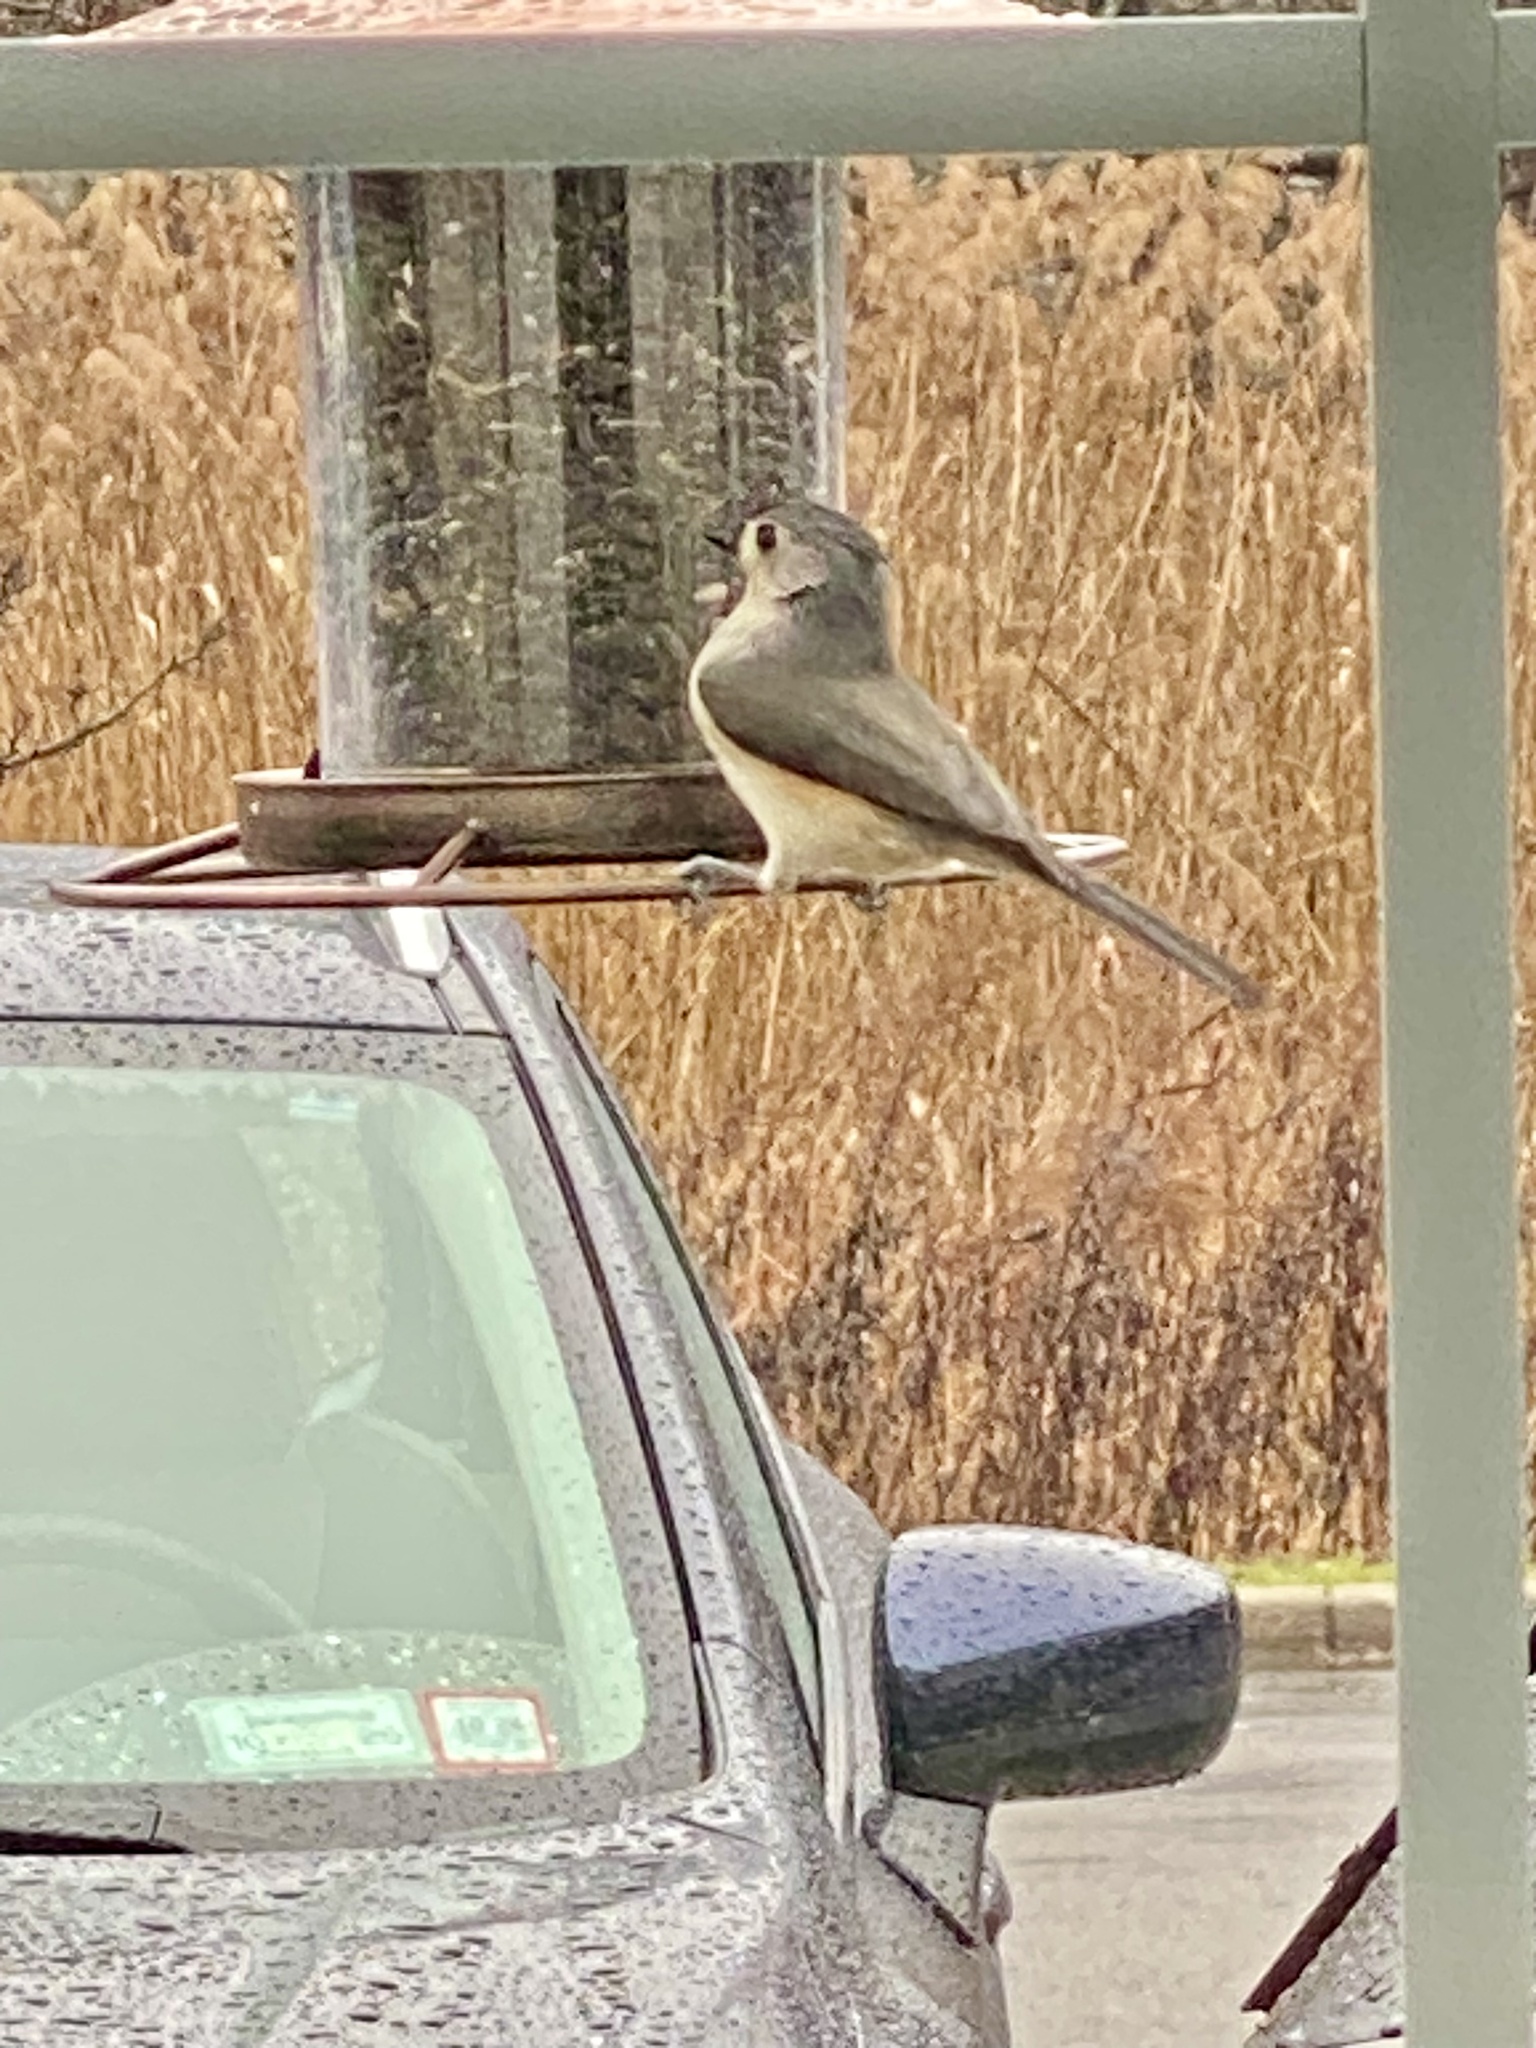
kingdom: Animalia
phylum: Chordata
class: Aves
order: Passeriformes
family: Paridae
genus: Baeolophus
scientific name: Baeolophus bicolor
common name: Tufted titmouse
